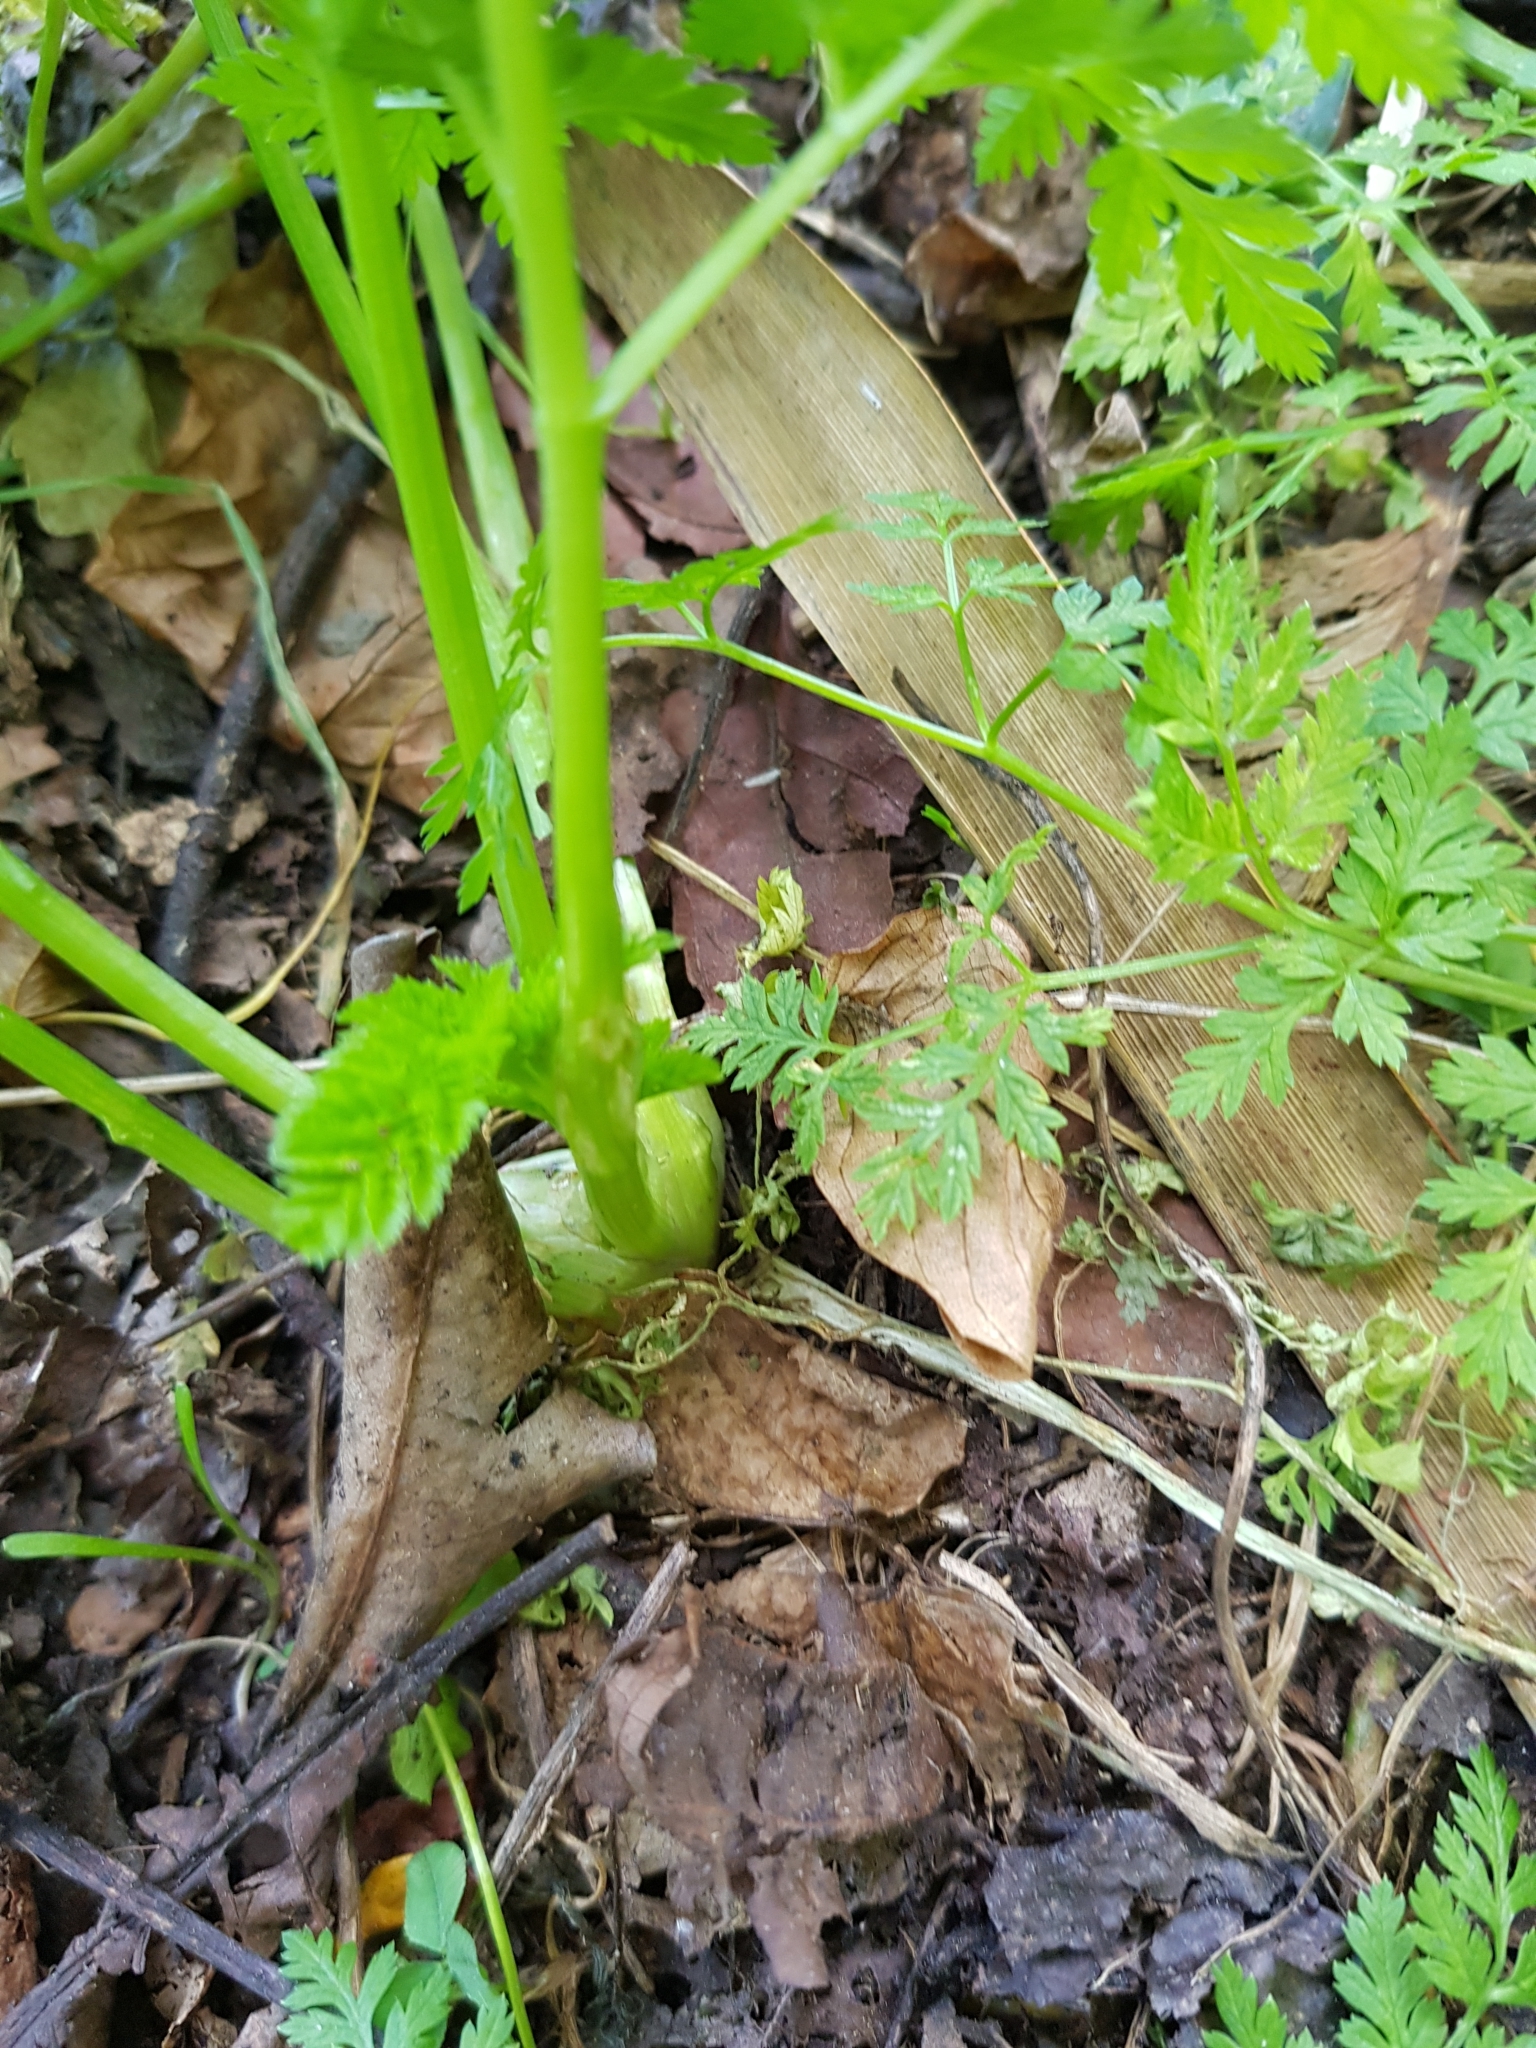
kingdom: Plantae
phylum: Tracheophyta
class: Magnoliopsida
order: Apiales
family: Apiaceae
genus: Conium
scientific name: Conium maculatum
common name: Hemlock
